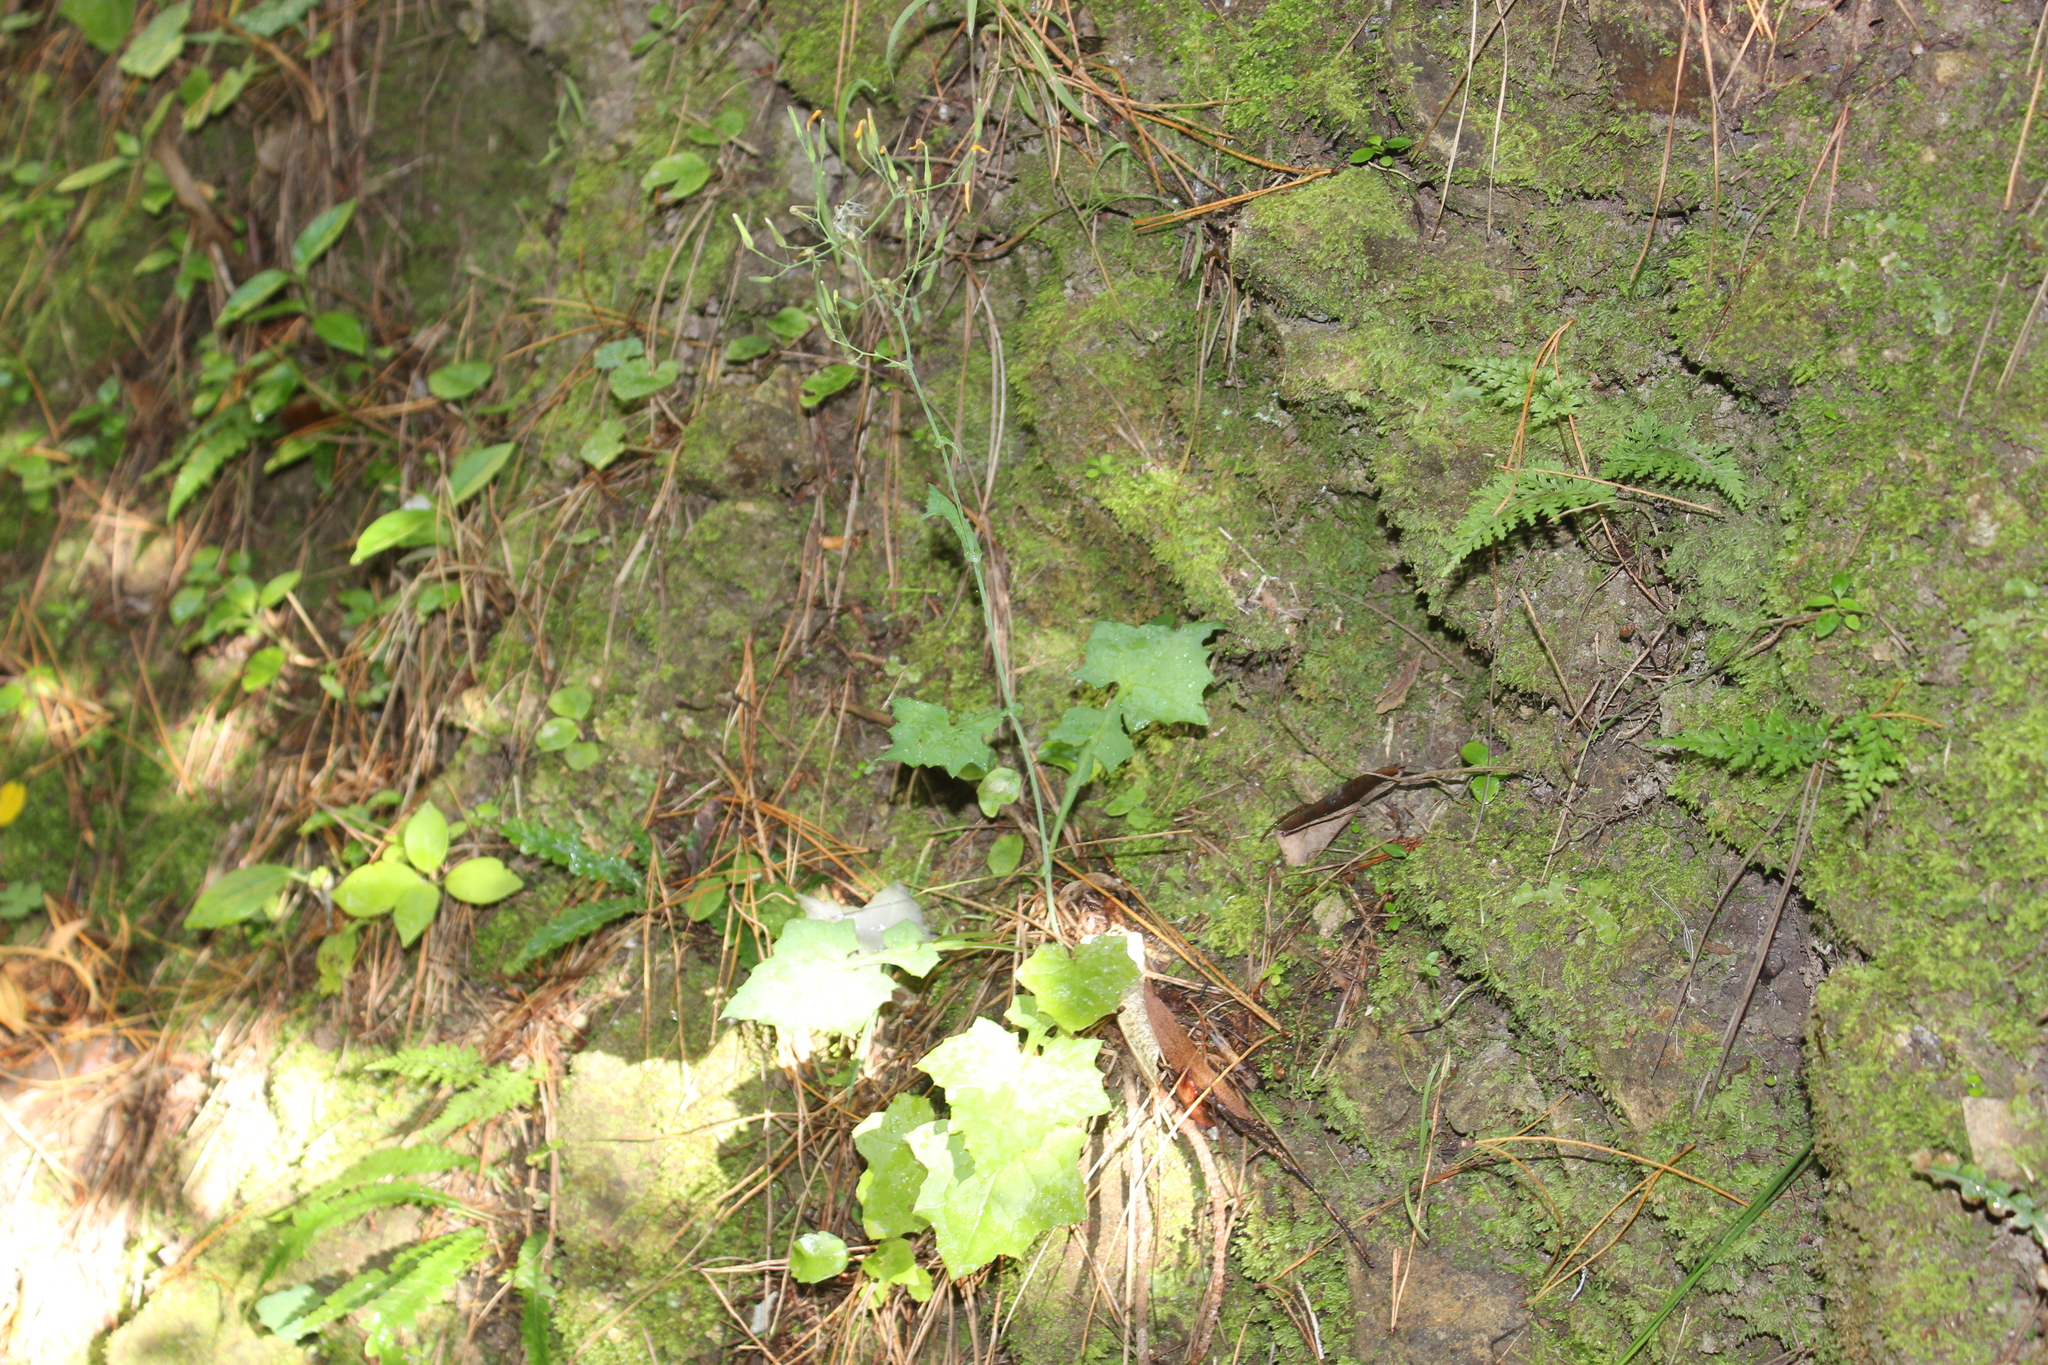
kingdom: Plantae
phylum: Tracheophyta
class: Magnoliopsida
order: Asterales
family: Asteraceae
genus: Mycelis
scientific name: Mycelis muralis
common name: Wall lettuce
